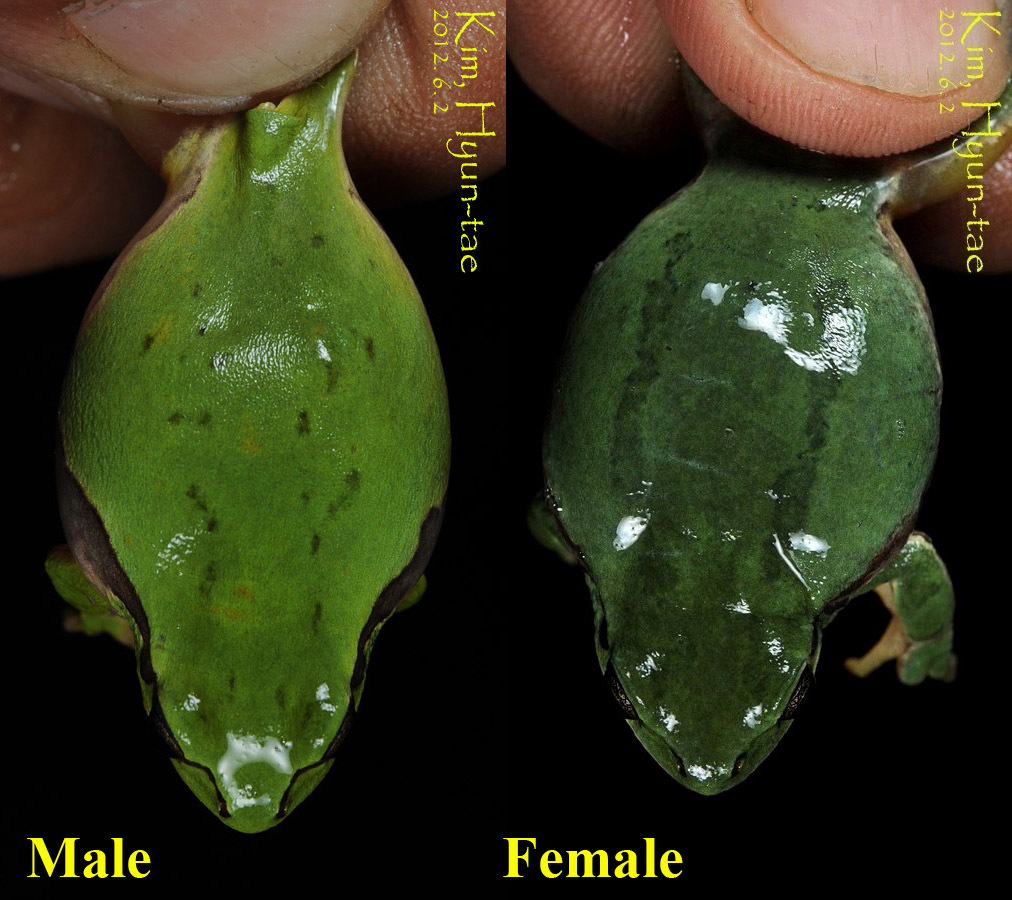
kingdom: Animalia
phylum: Chordata
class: Amphibia
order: Anura
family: Hylidae
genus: Dryophytes
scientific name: Dryophytes immaculatus
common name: North china treefrog
